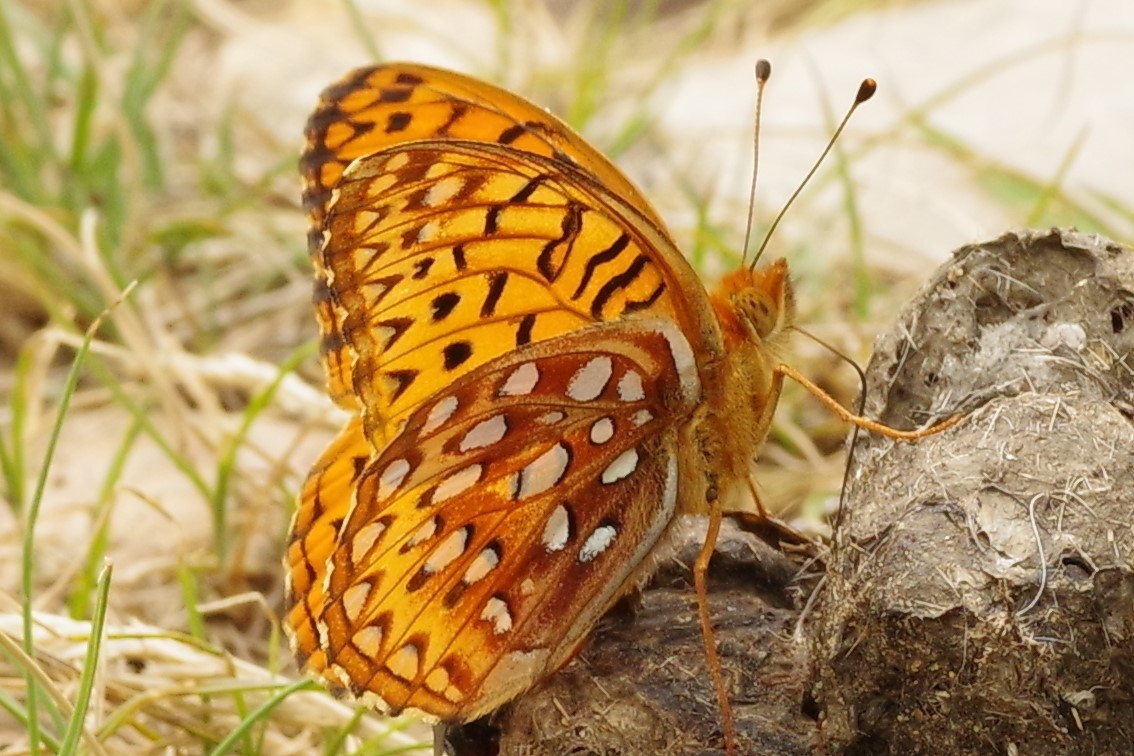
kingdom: Animalia
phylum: Arthropoda
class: Insecta
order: Lepidoptera
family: Nymphalidae
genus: Speyeria
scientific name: Speyeria aphrodite
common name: Aphrodite friitllary
